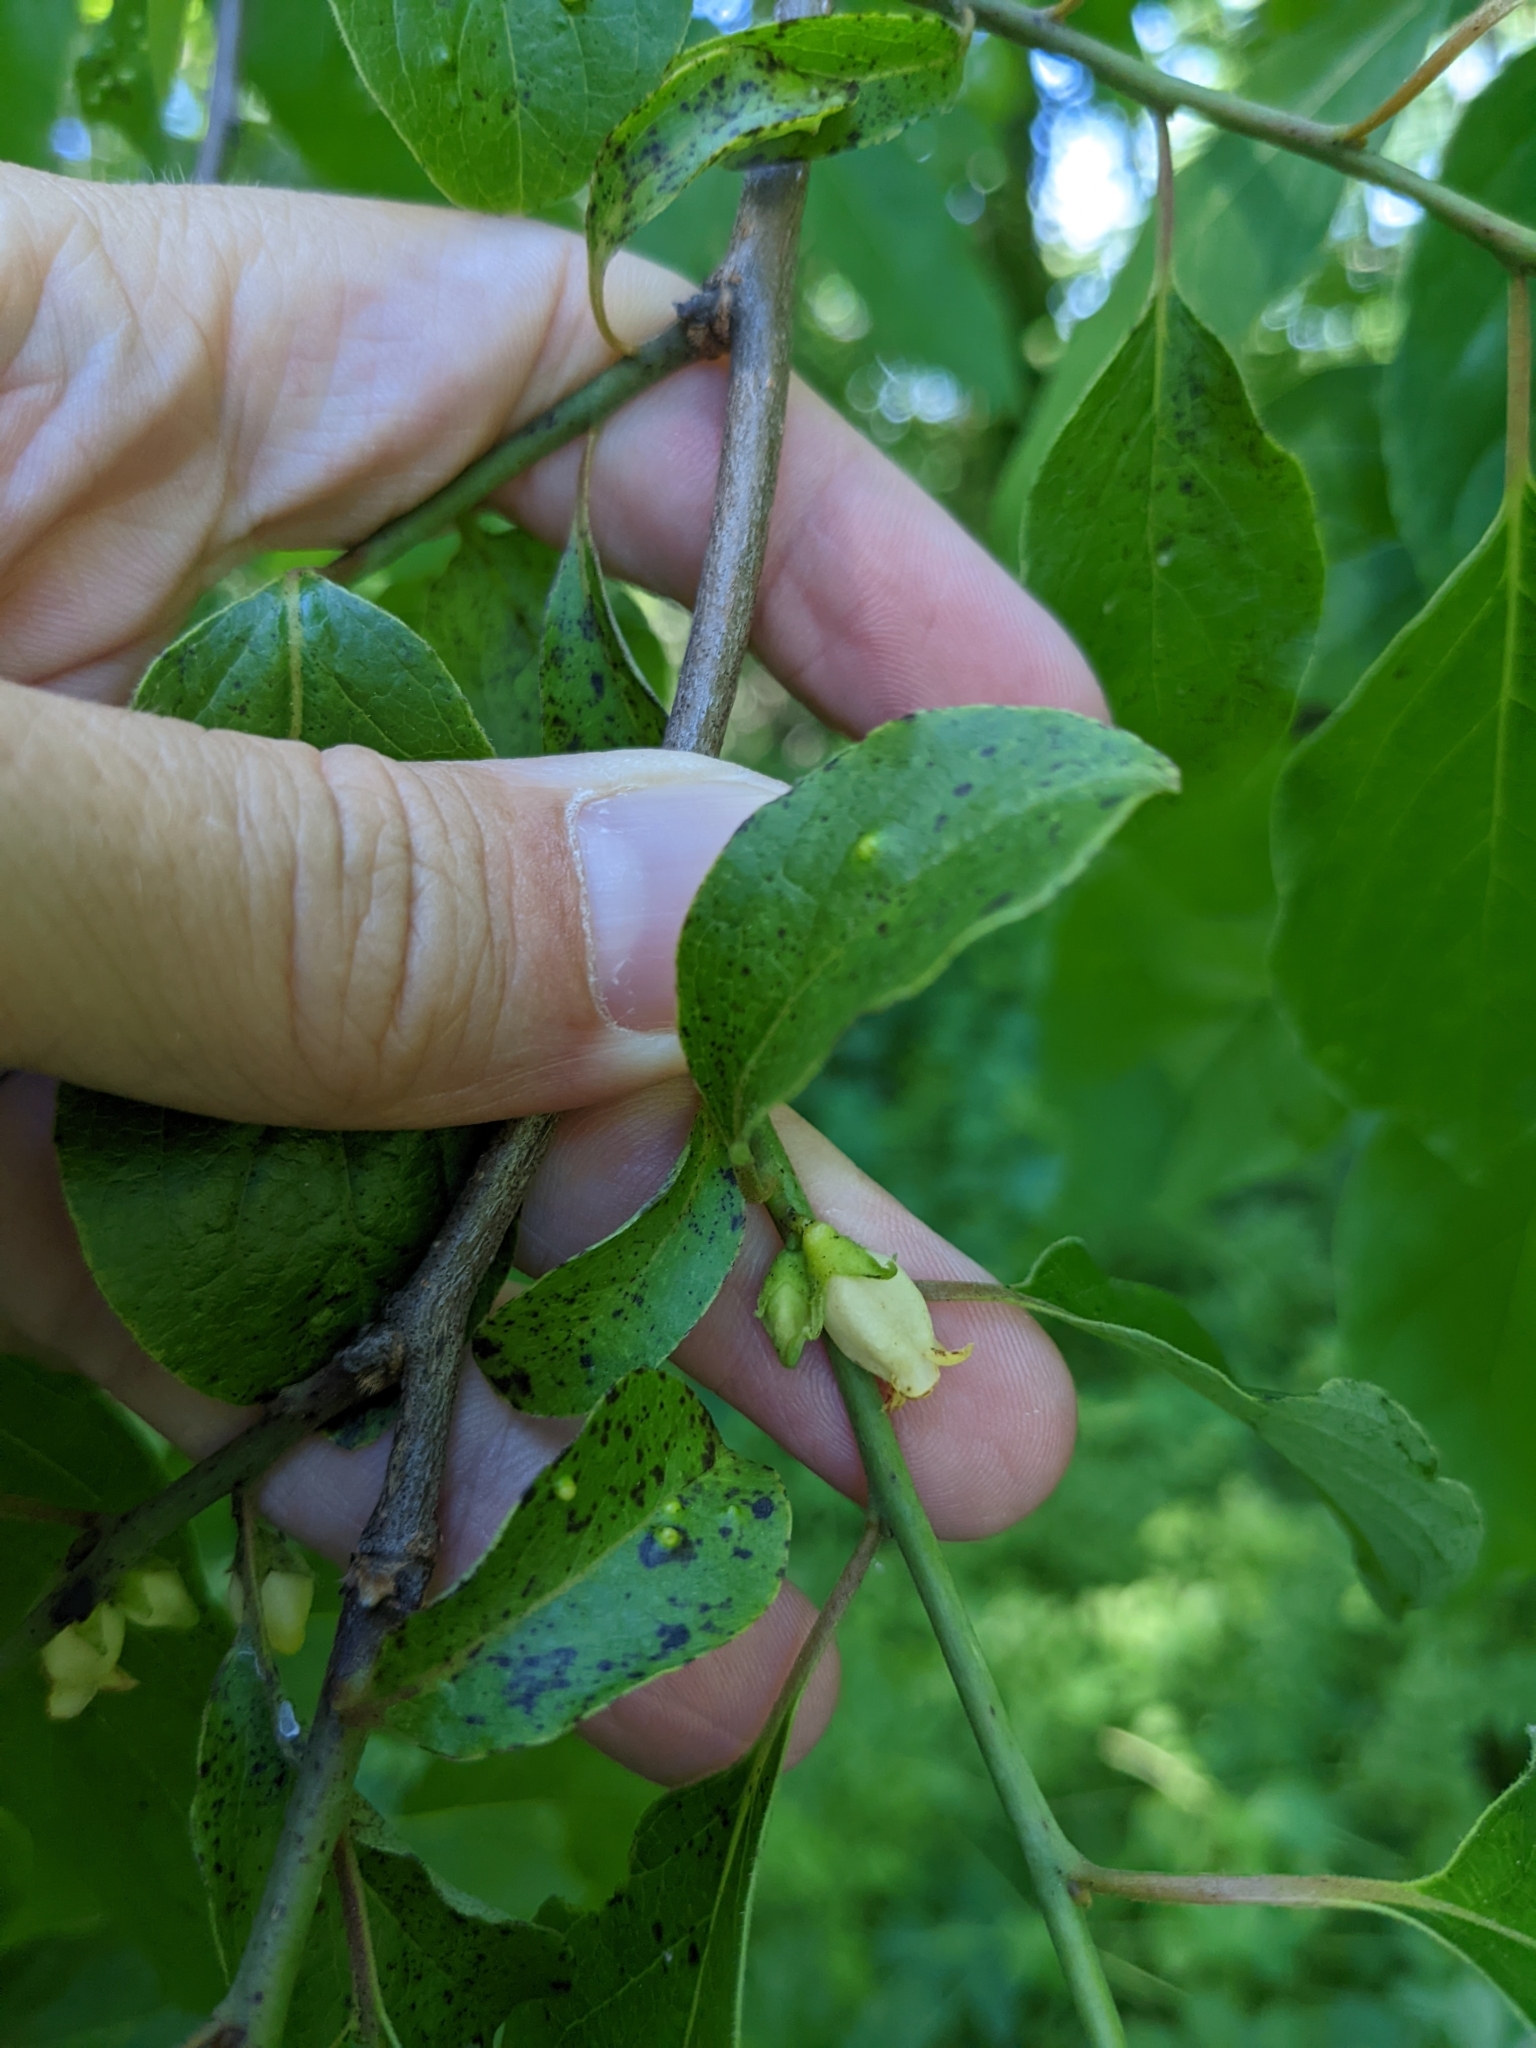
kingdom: Plantae
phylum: Tracheophyta
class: Magnoliopsida
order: Ericales
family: Ebenaceae
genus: Diospyros
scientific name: Diospyros virginiana
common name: Persimmon
